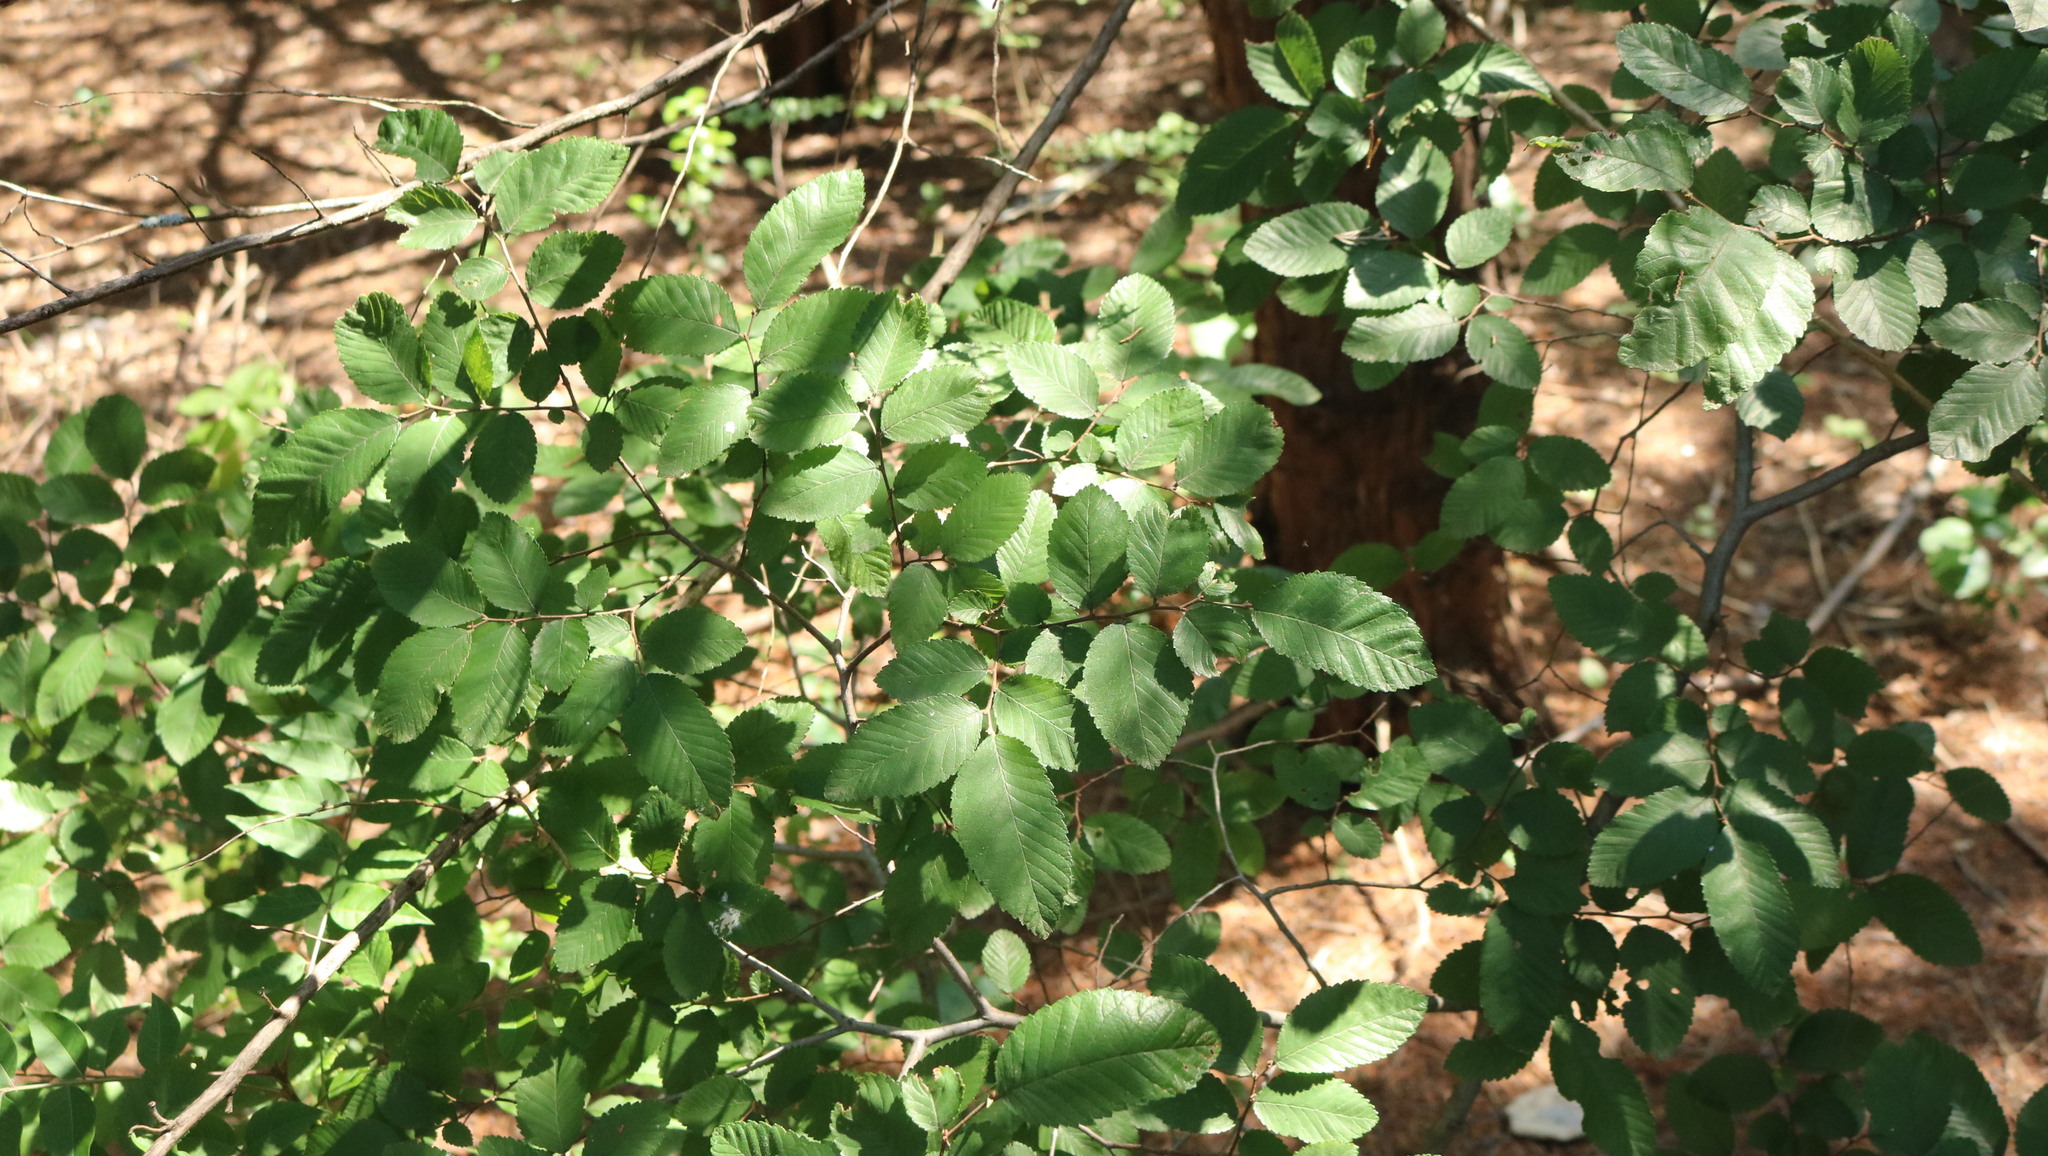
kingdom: Plantae
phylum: Tracheophyta
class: Magnoliopsida
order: Rosales
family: Ulmaceae
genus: Ulmus
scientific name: Ulmus crassifolia
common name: Basket elm
